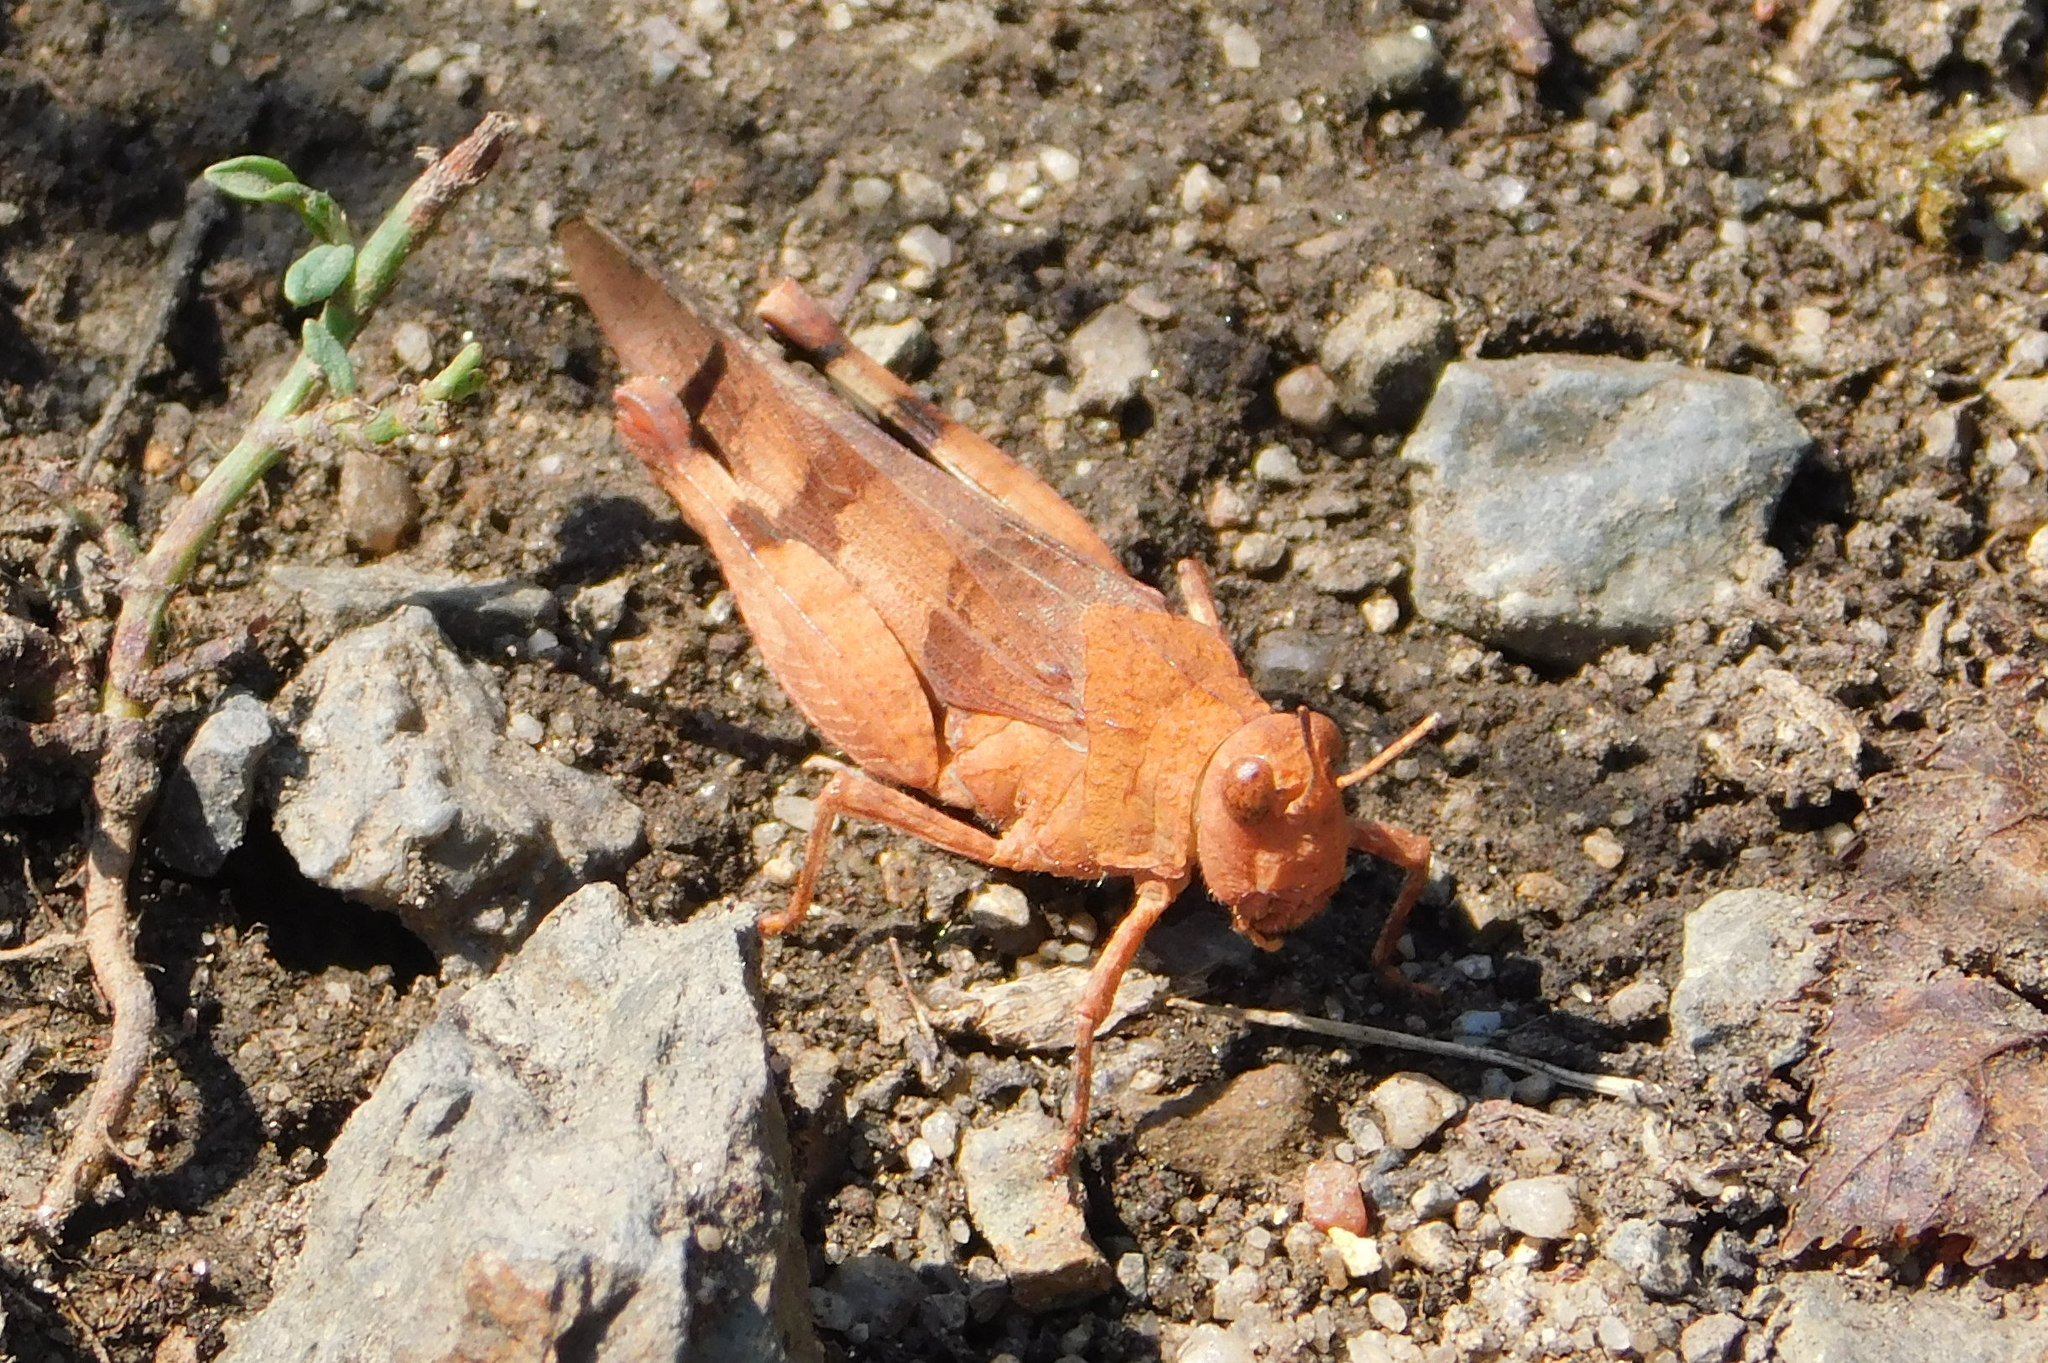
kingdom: Animalia
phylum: Arthropoda
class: Insecta
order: Orthoptera
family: Acrididae
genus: Oedipoda
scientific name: Oedipoda caerulescens
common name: Blue-winged grasshopper
